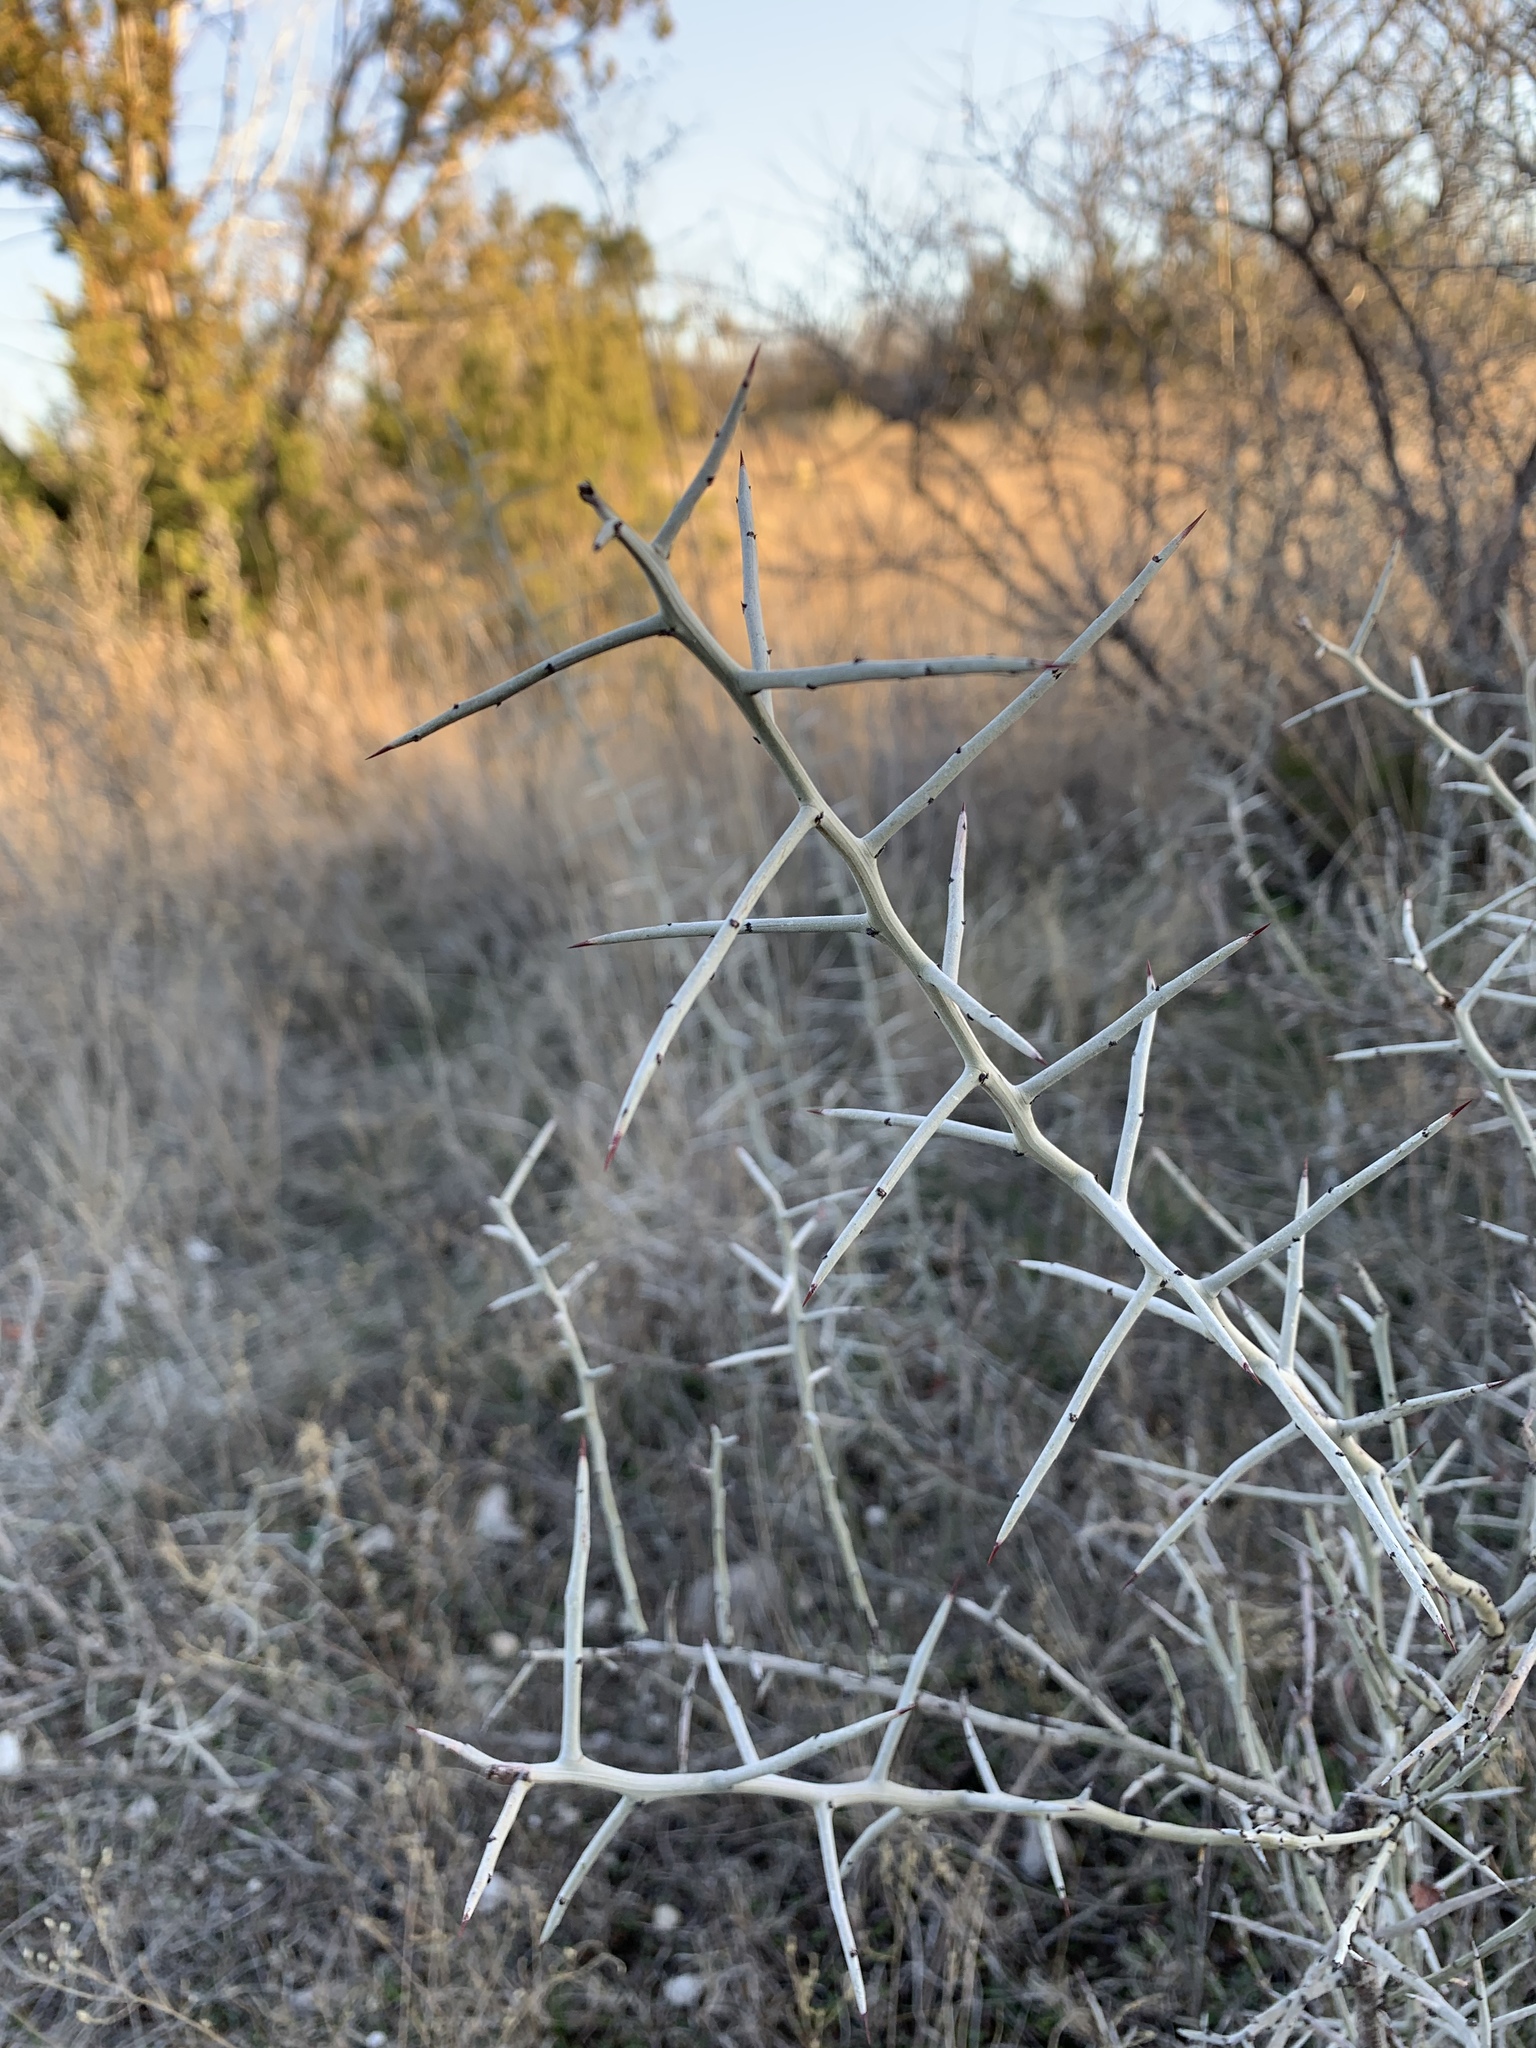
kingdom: Plantae
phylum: Tracheophyta
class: Magnoliopsida
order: Rosales
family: Rhamnaceae
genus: Sarcomphalus
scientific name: Sarcomphalus obtusifolius
